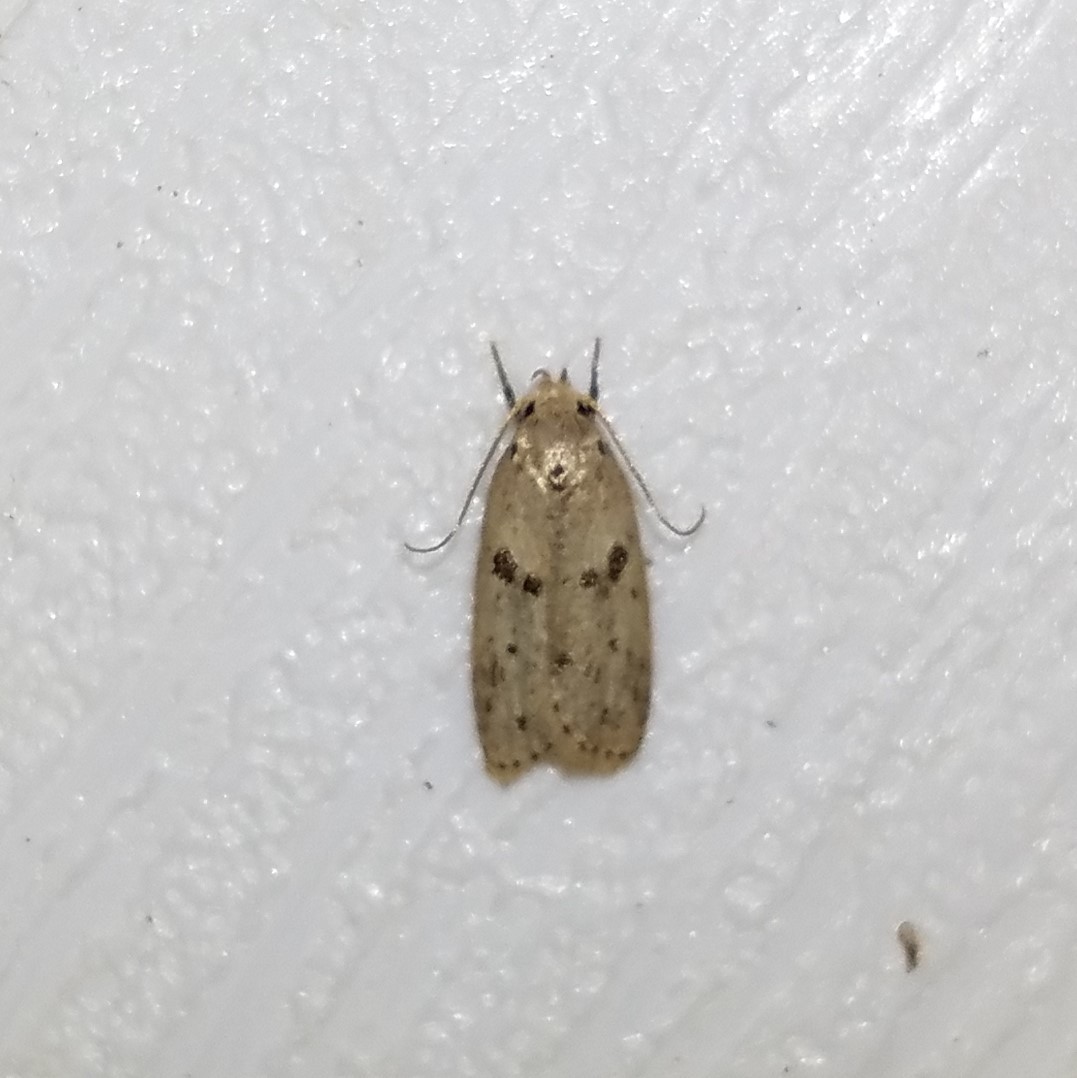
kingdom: Animalia
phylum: Arthropoda
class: Insecta
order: Lepidoptera
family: Peleopodidae
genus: Scythropiodes
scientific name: Scythropiodes issikii
